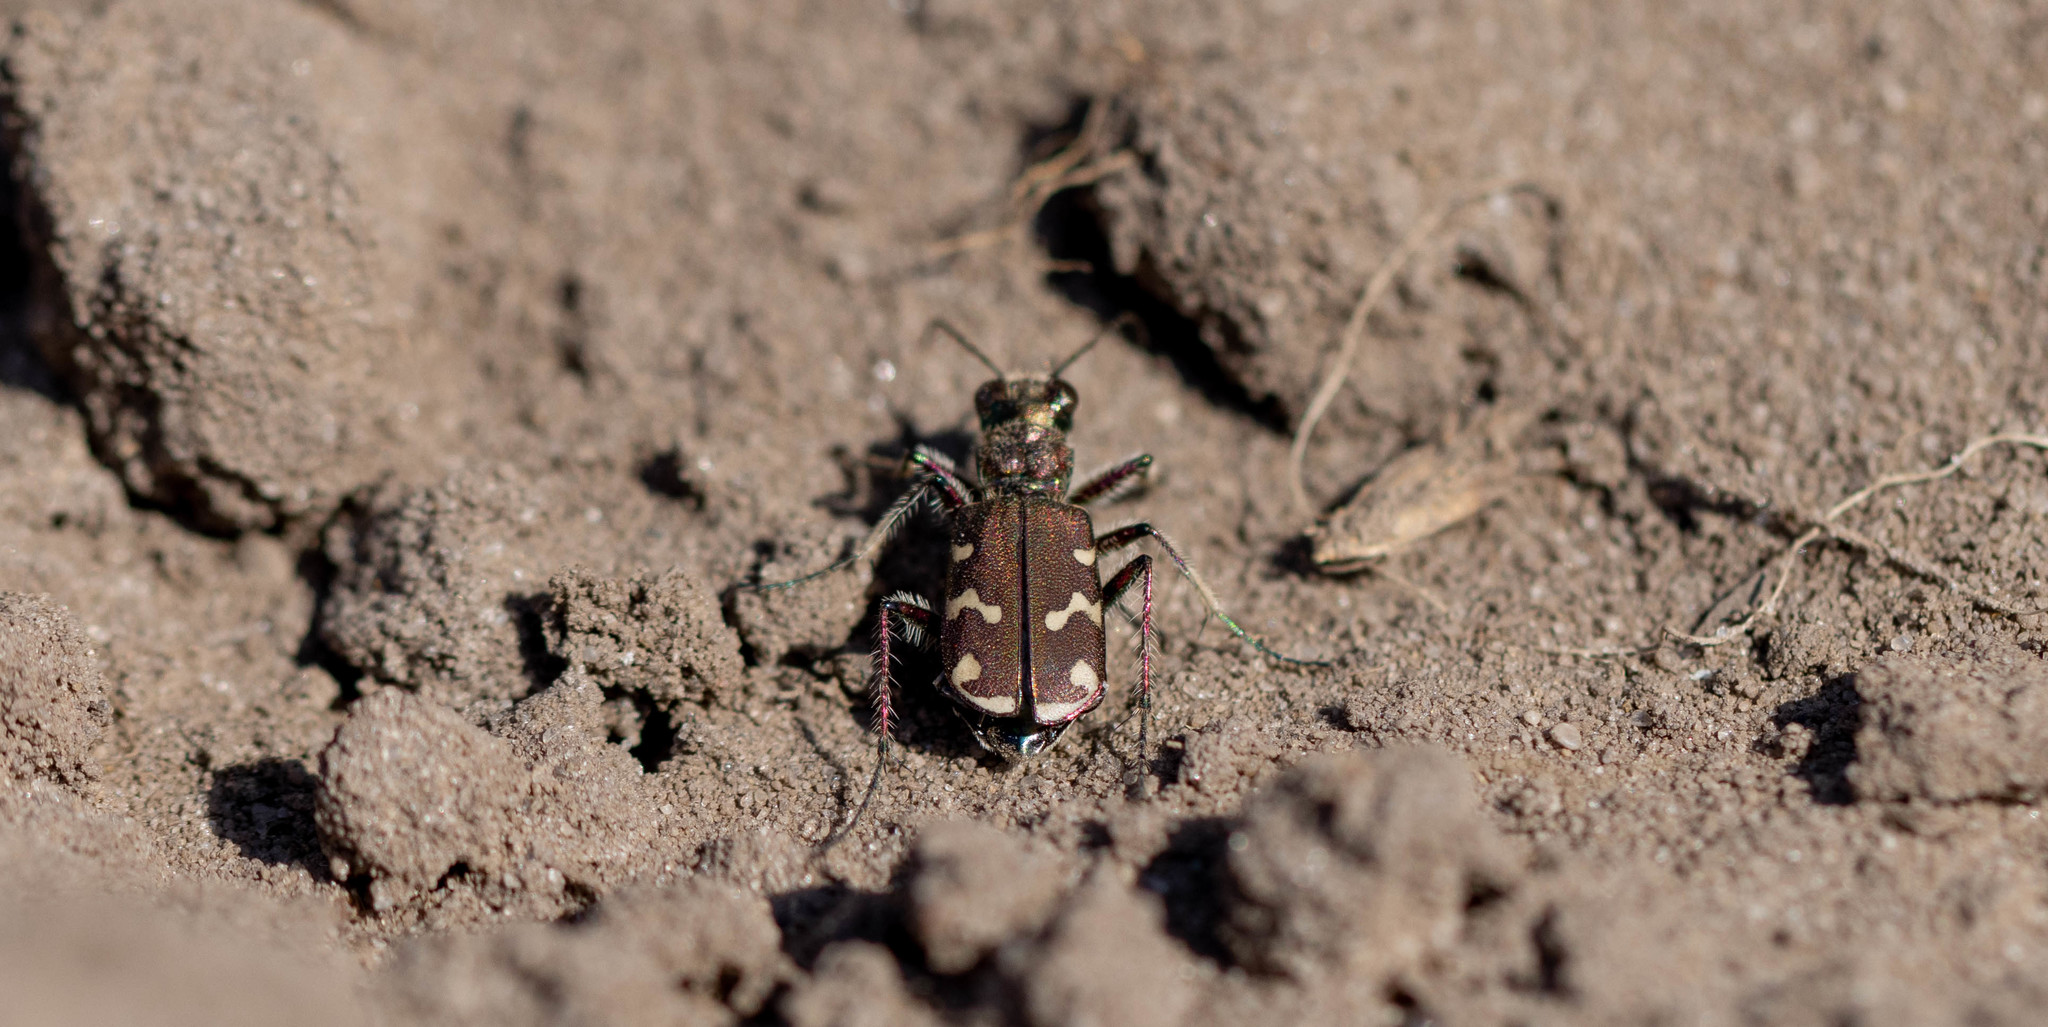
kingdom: Animalia
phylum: Arthropoda
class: Insecta
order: Coleoptera
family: Carabidae
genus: Cicindela
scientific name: Cicindela soluta
